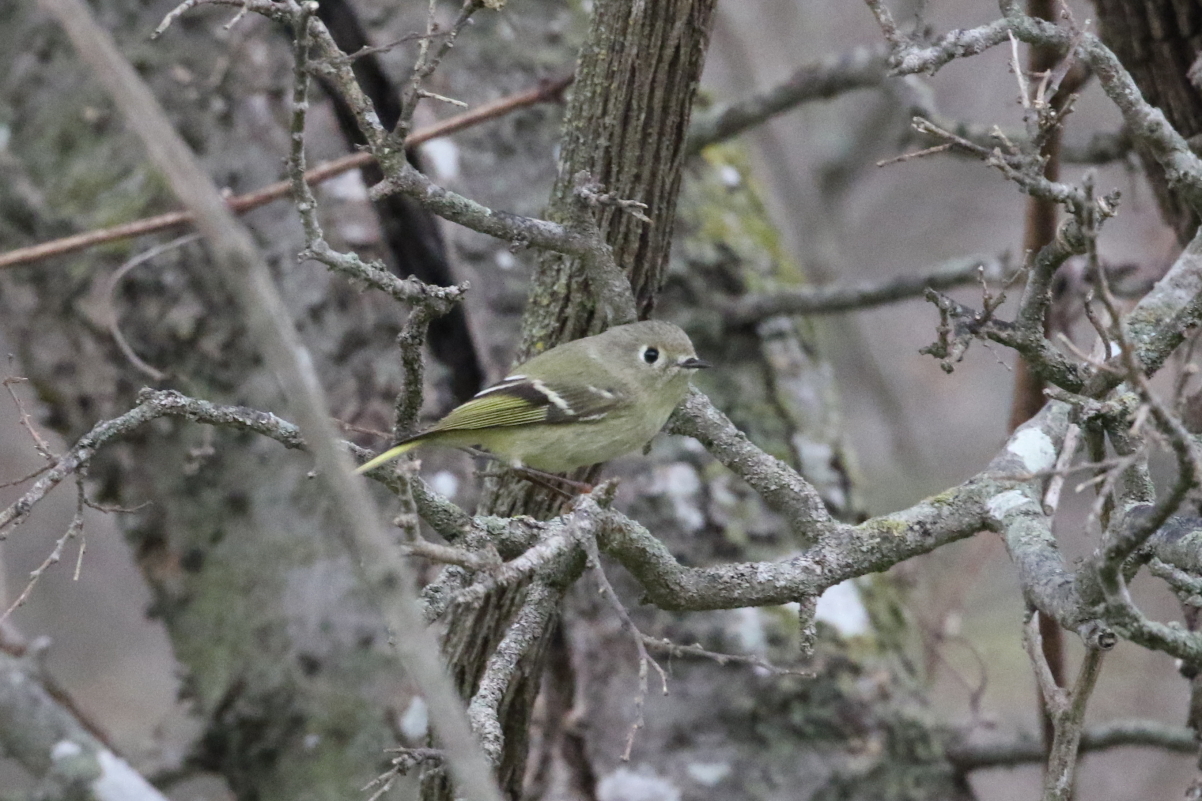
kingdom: Animalia
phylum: Chordata
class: Aves
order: Passeriformes
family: Regulidae
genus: Regulus
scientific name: Regulus calendula
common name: Ruby-crowned kinglet
